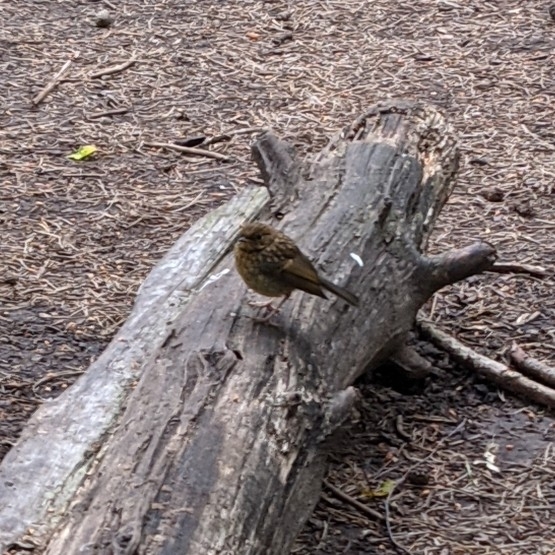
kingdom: Animalia
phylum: Chordata
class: Aves
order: Passeriformes
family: Muscicapidae
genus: Erithacus
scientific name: Erithacus rubecula
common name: European robin
